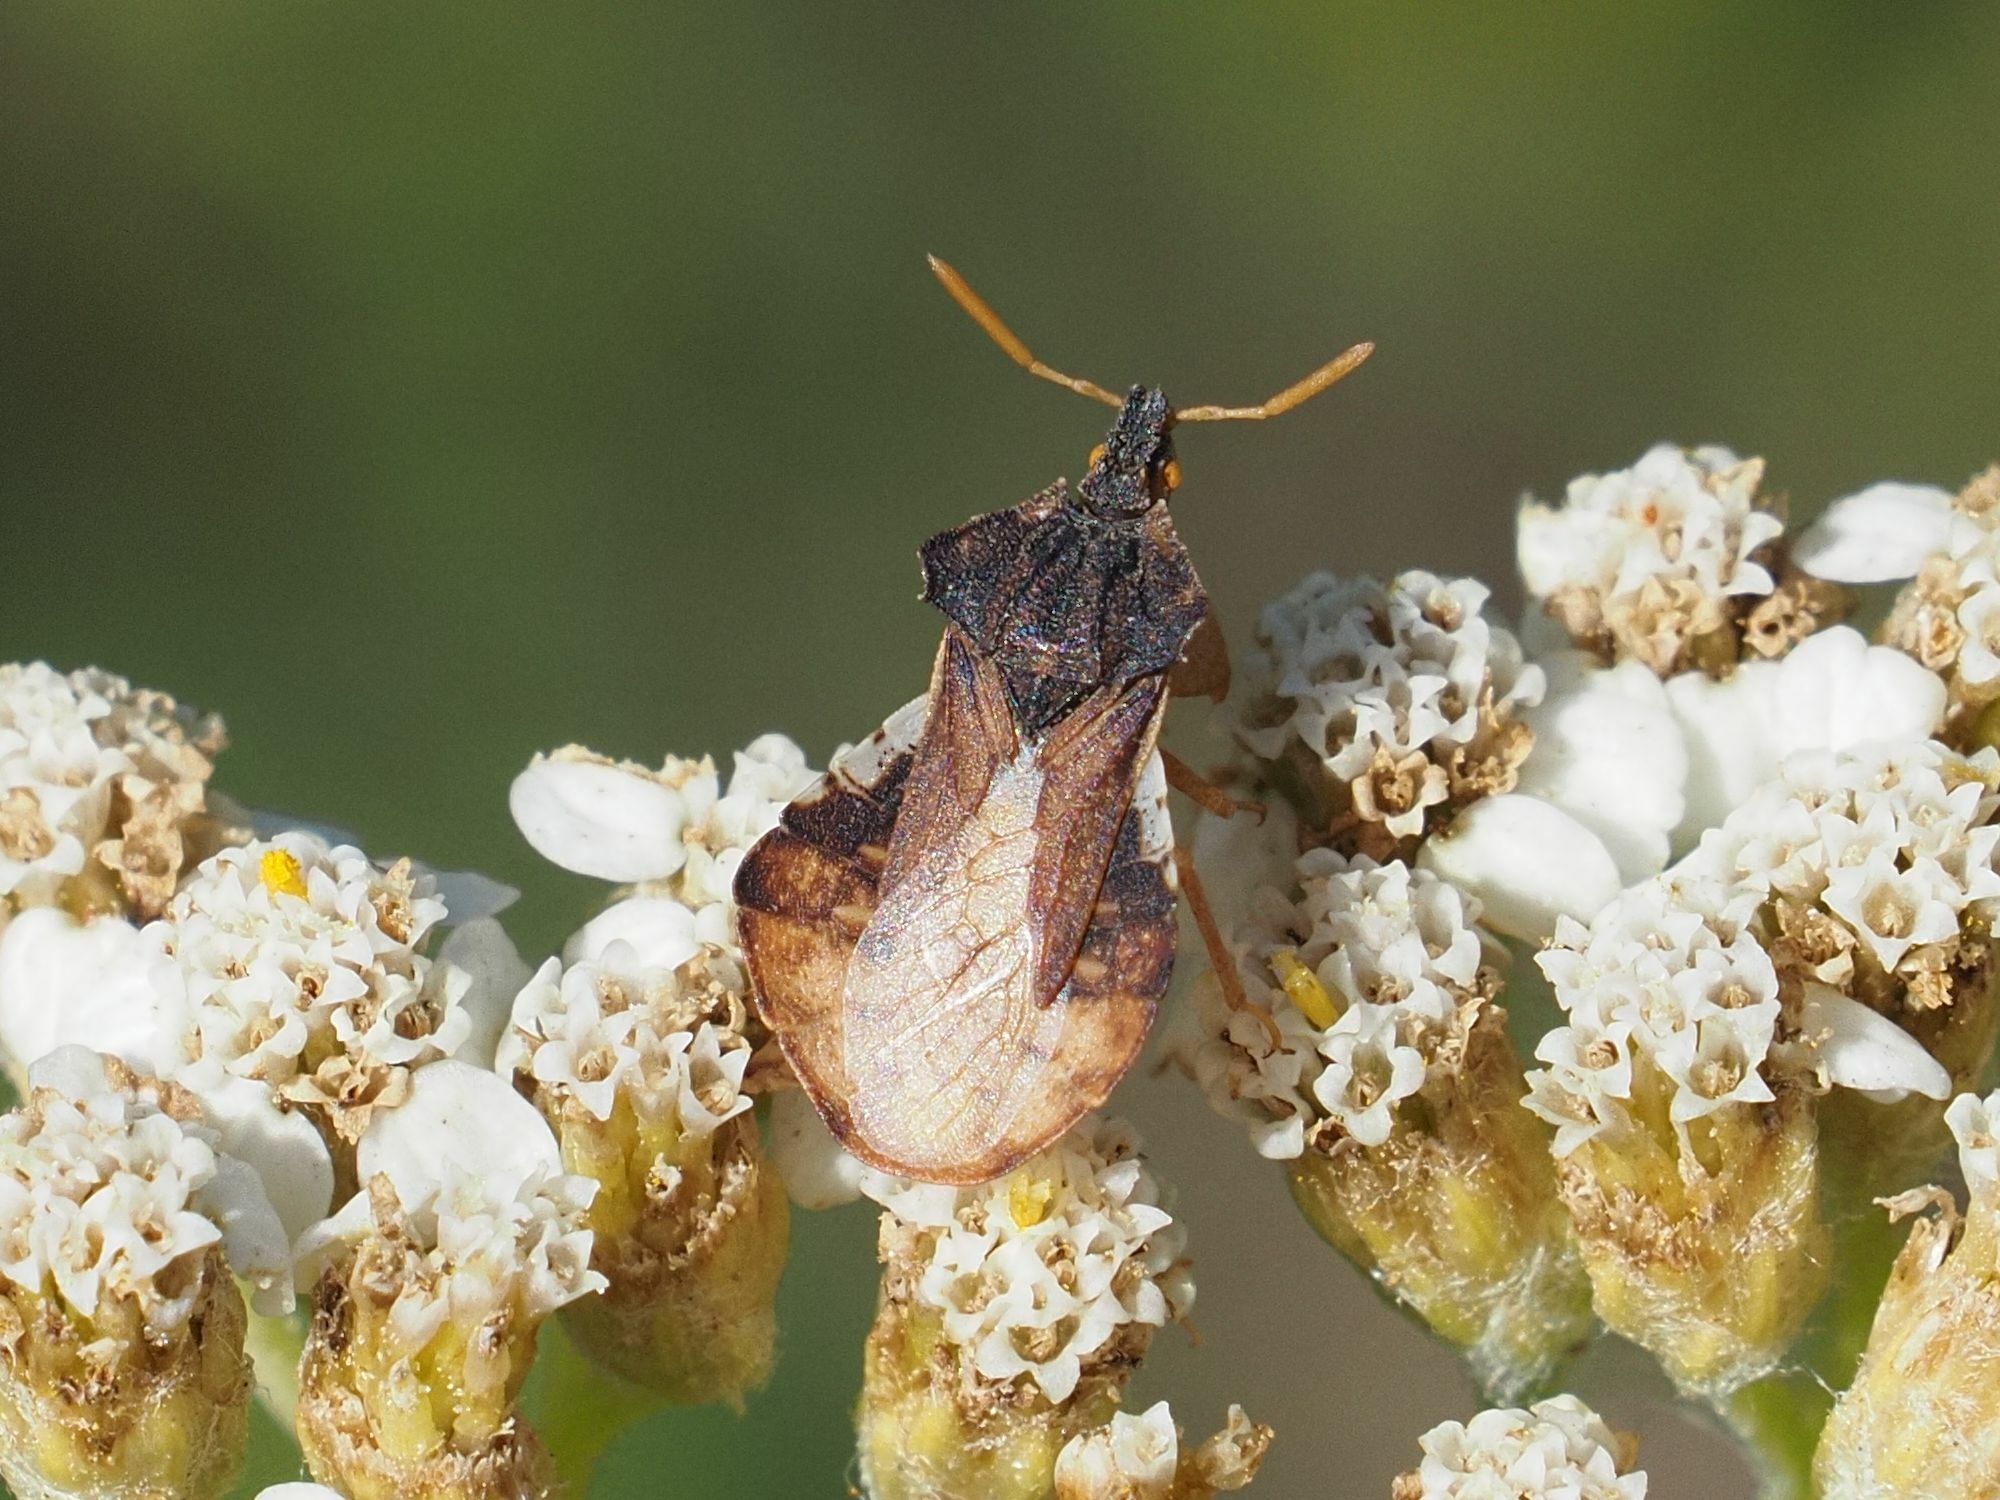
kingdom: Animalia
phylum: Arthropoda
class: Insecta
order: Hemiptera
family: Reduviidae
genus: Phymata
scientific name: Phymata crassipes
